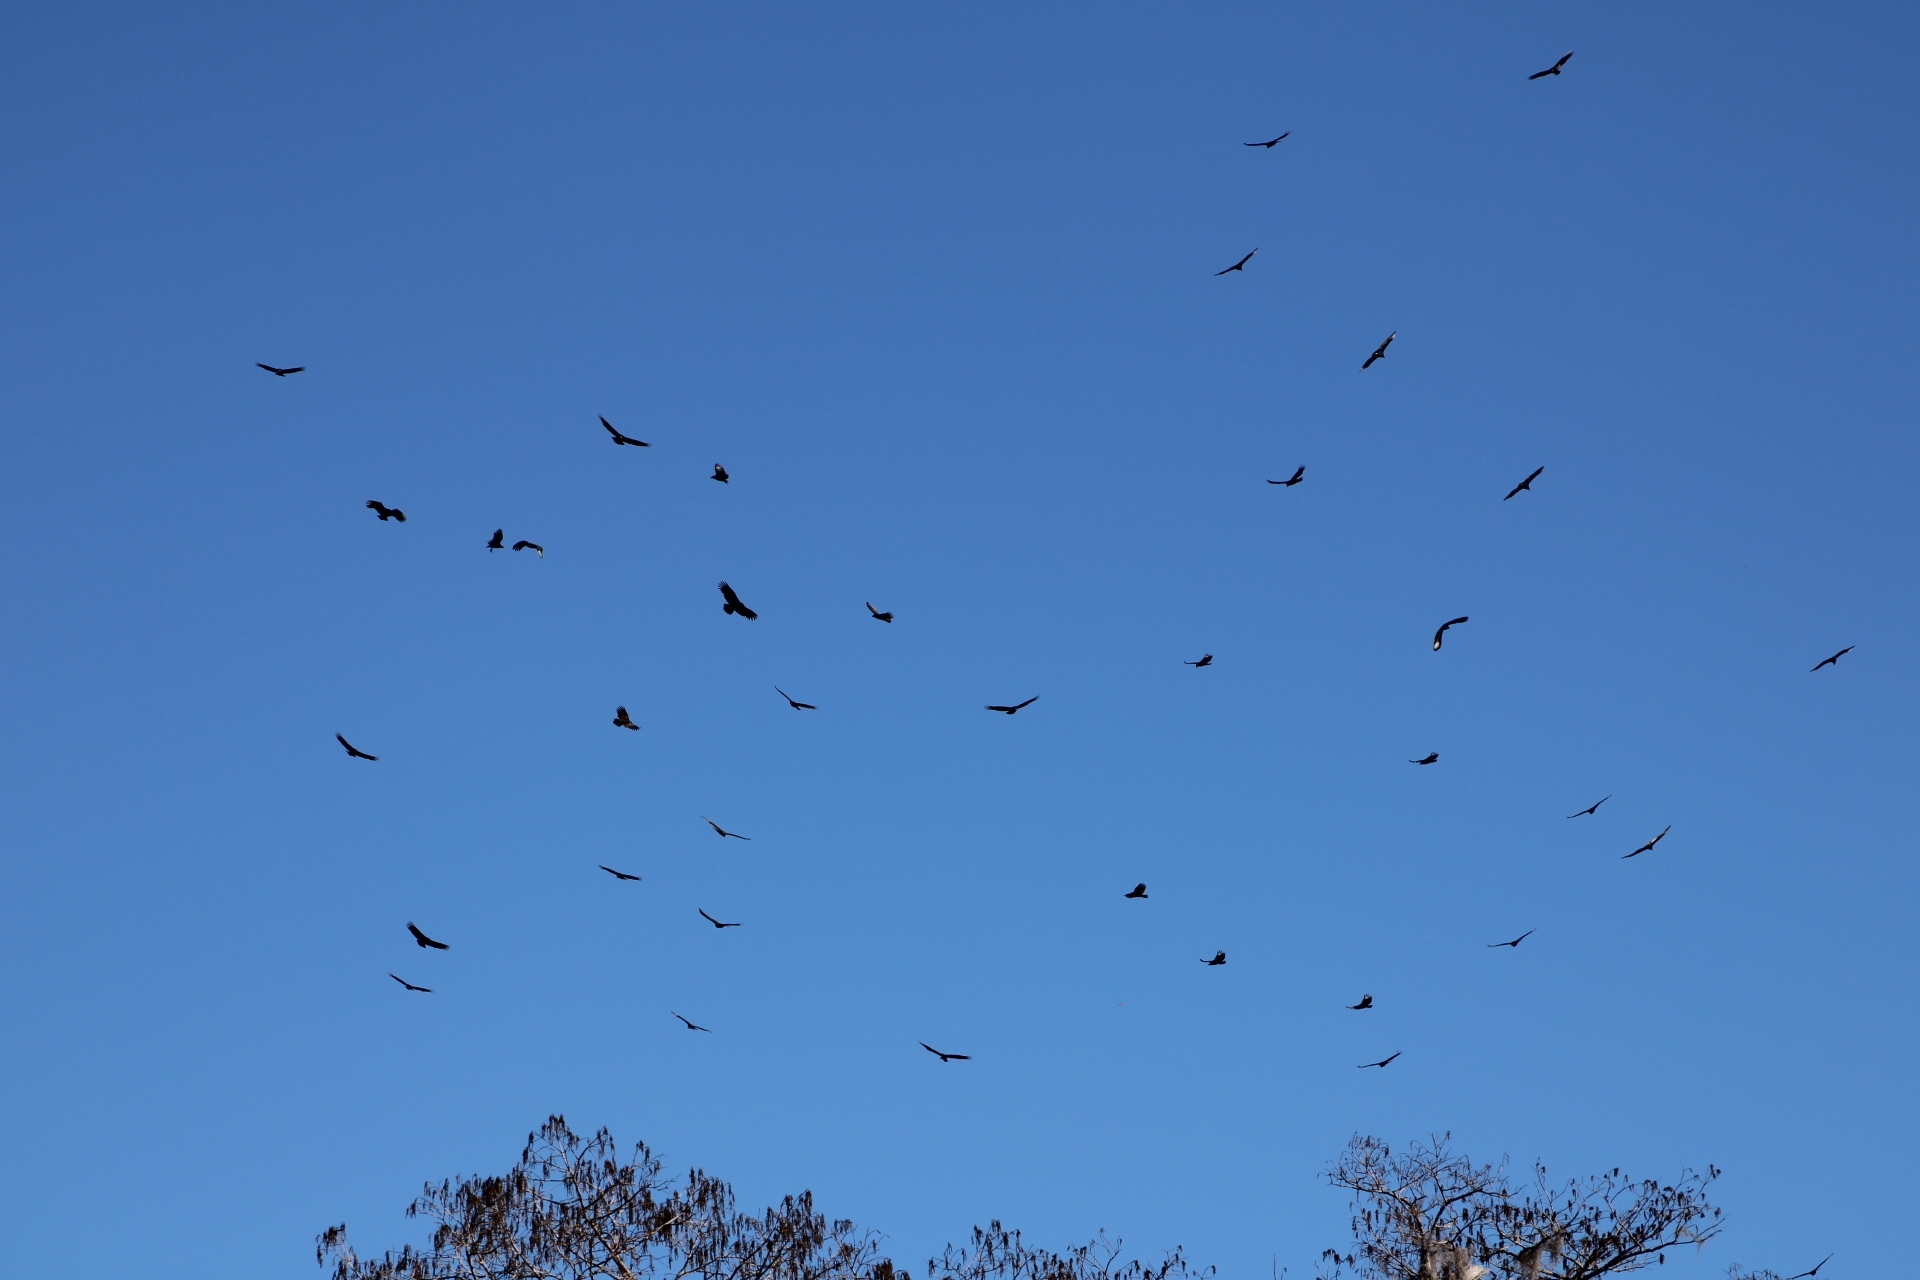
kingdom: Animalia
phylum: Chordata
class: Aves
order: Accipitriformes
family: Cathartidae
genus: Coragyps
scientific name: Coragyps atratus
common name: Black vulture
